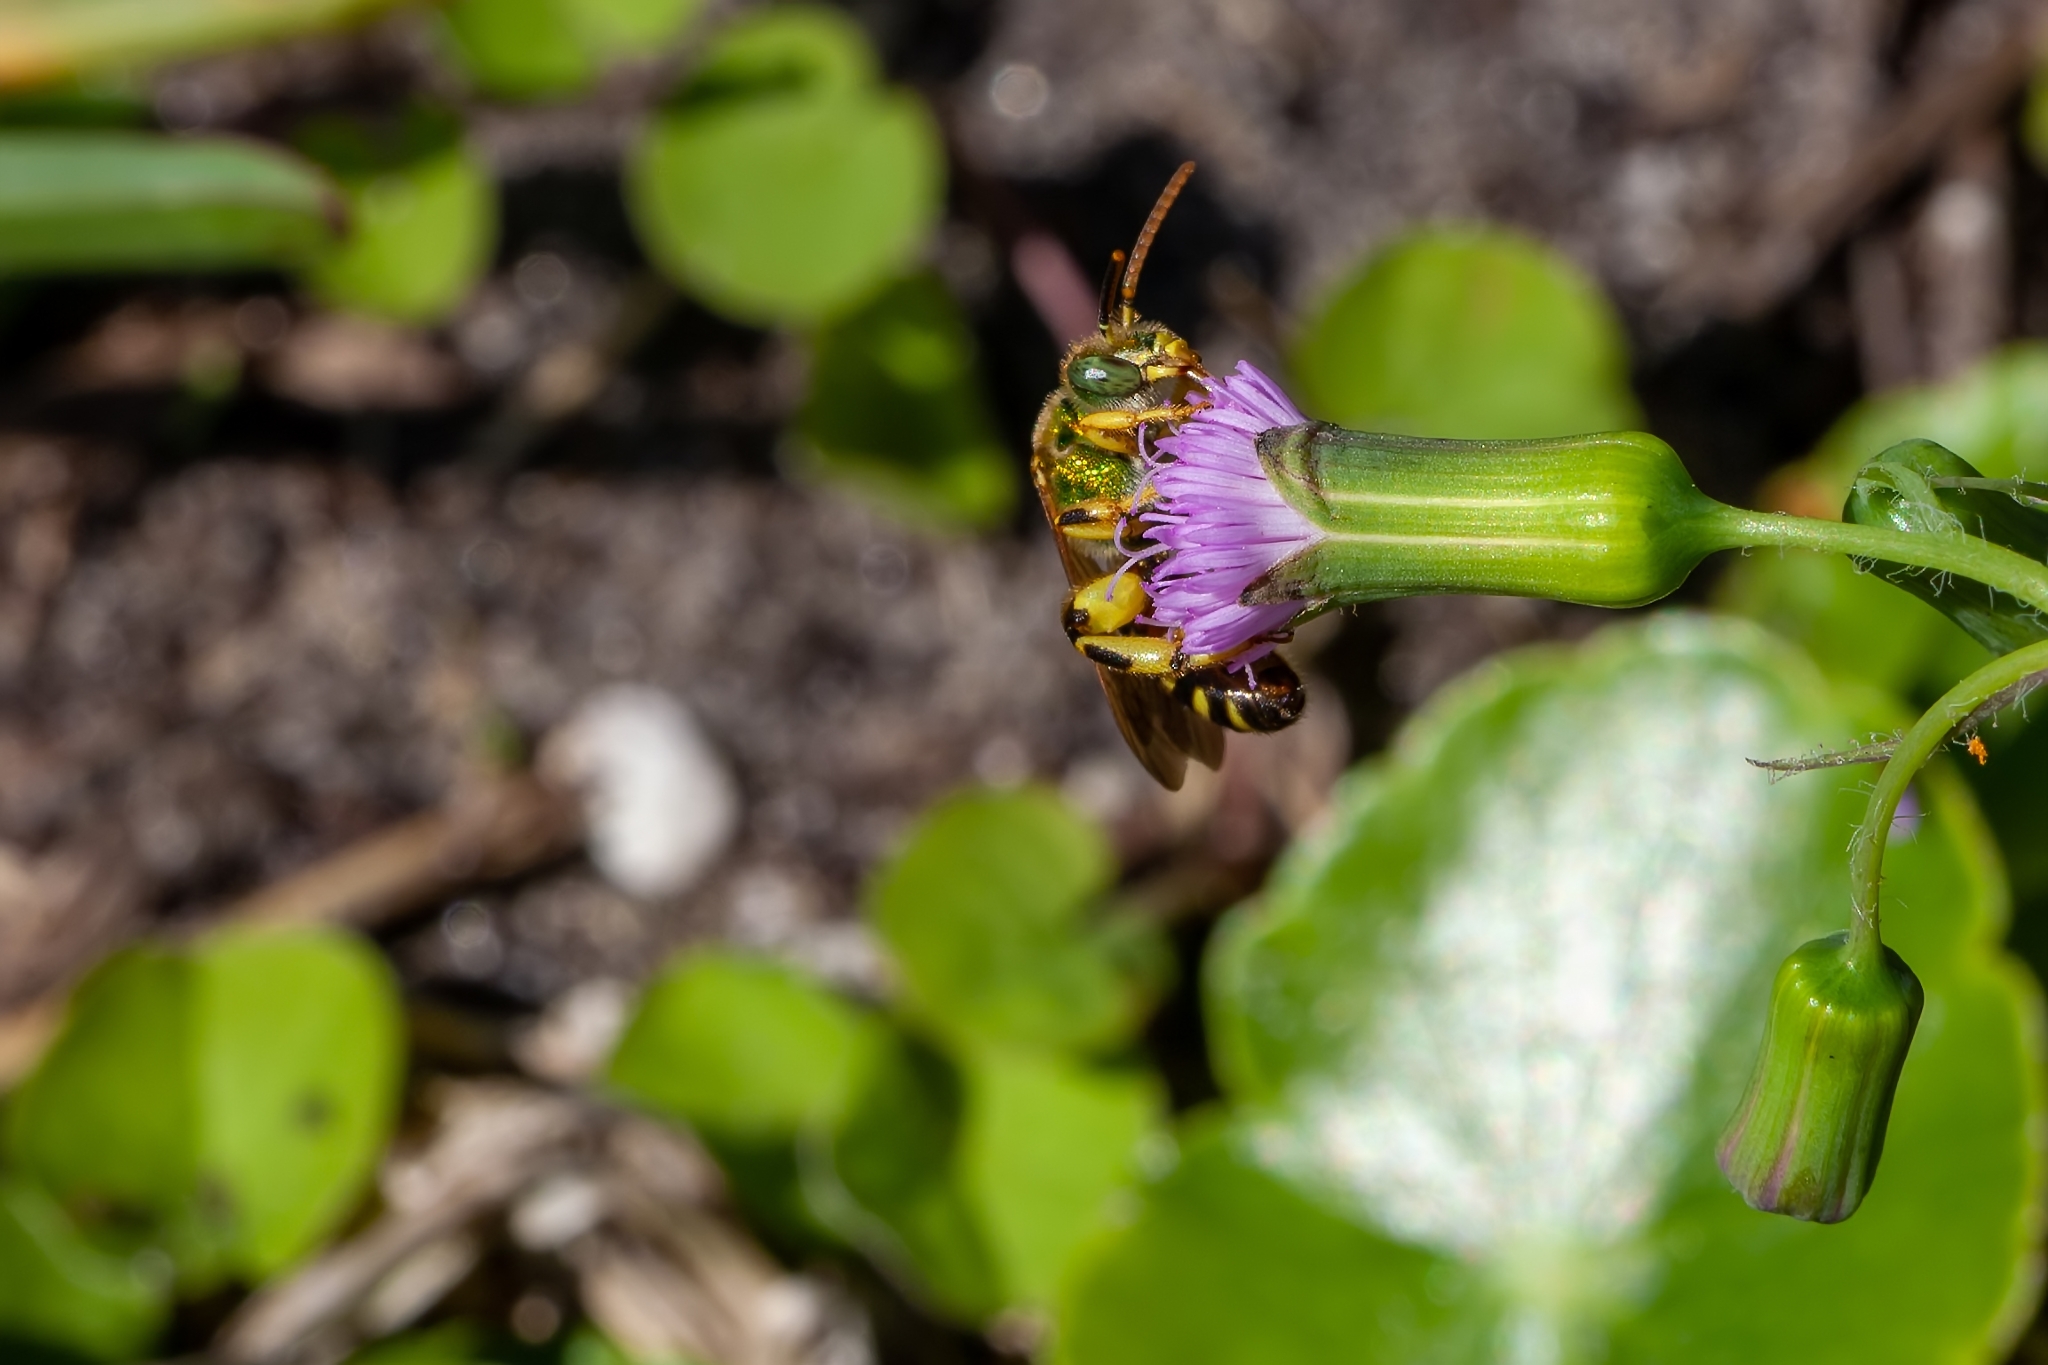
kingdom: Animalia
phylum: Arthropoda
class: Insecta
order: Hymenoptera
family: Halictidae
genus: Agapostemon
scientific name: Agapostemon splendens
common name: Brown-winged striped sweat bee
